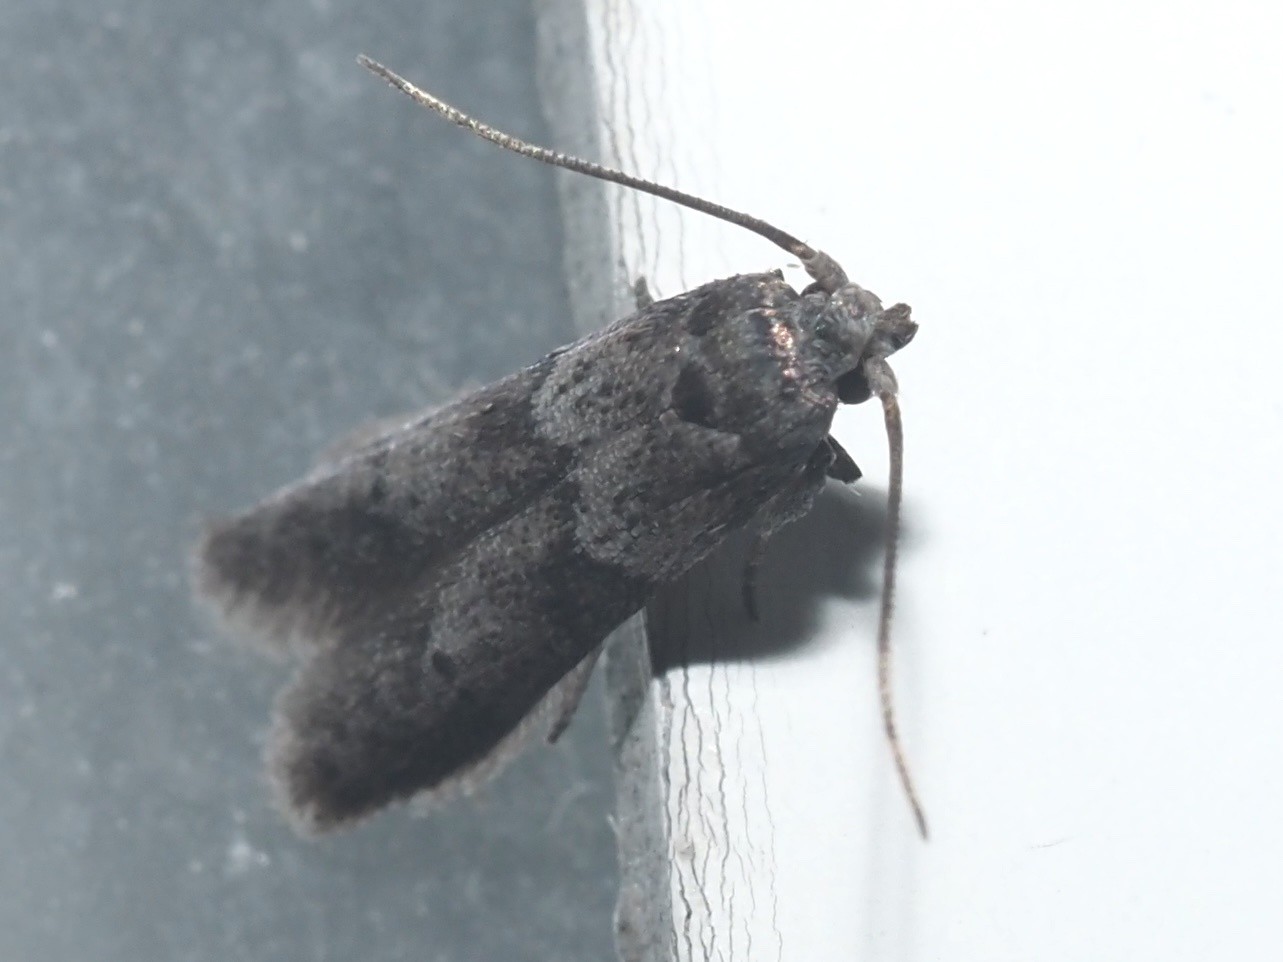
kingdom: Animalia
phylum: Arthropoda
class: Insecta
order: Lepidoptera
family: Blastobasidae
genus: Blastobasis
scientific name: Blastobasis glandulella
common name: Acorn moth
